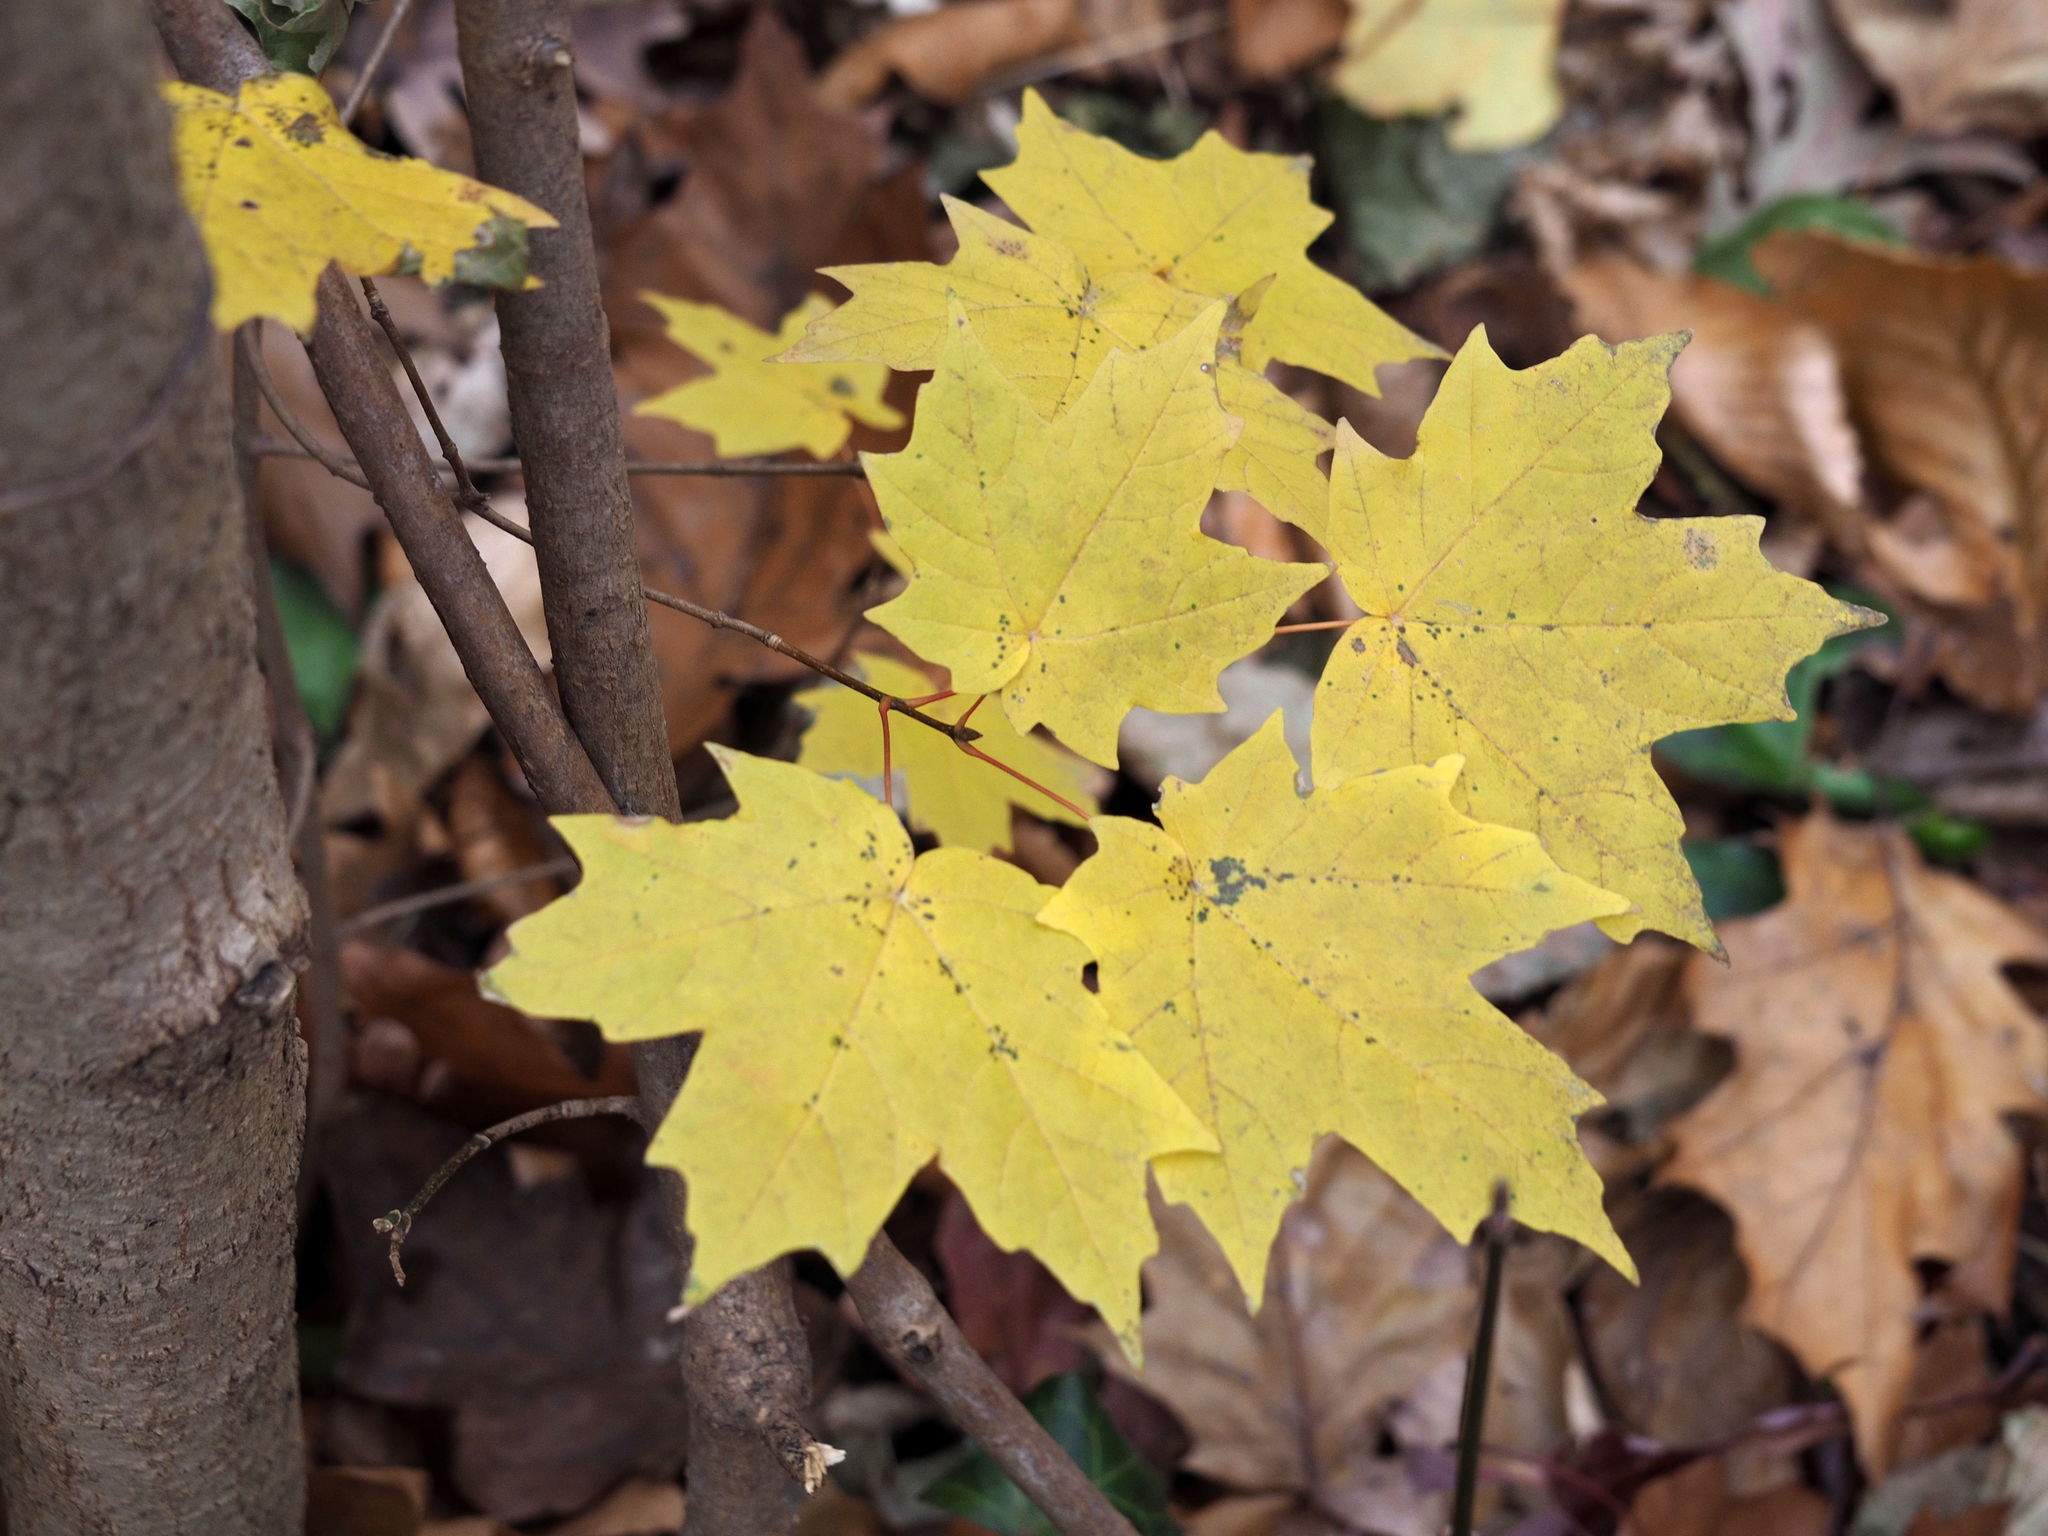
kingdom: Plantae
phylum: Tracheophyta
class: Magnoliopsida
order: Sapindales
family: Sapindaceae
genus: Acer
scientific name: Acer platanoides
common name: Norway maple
